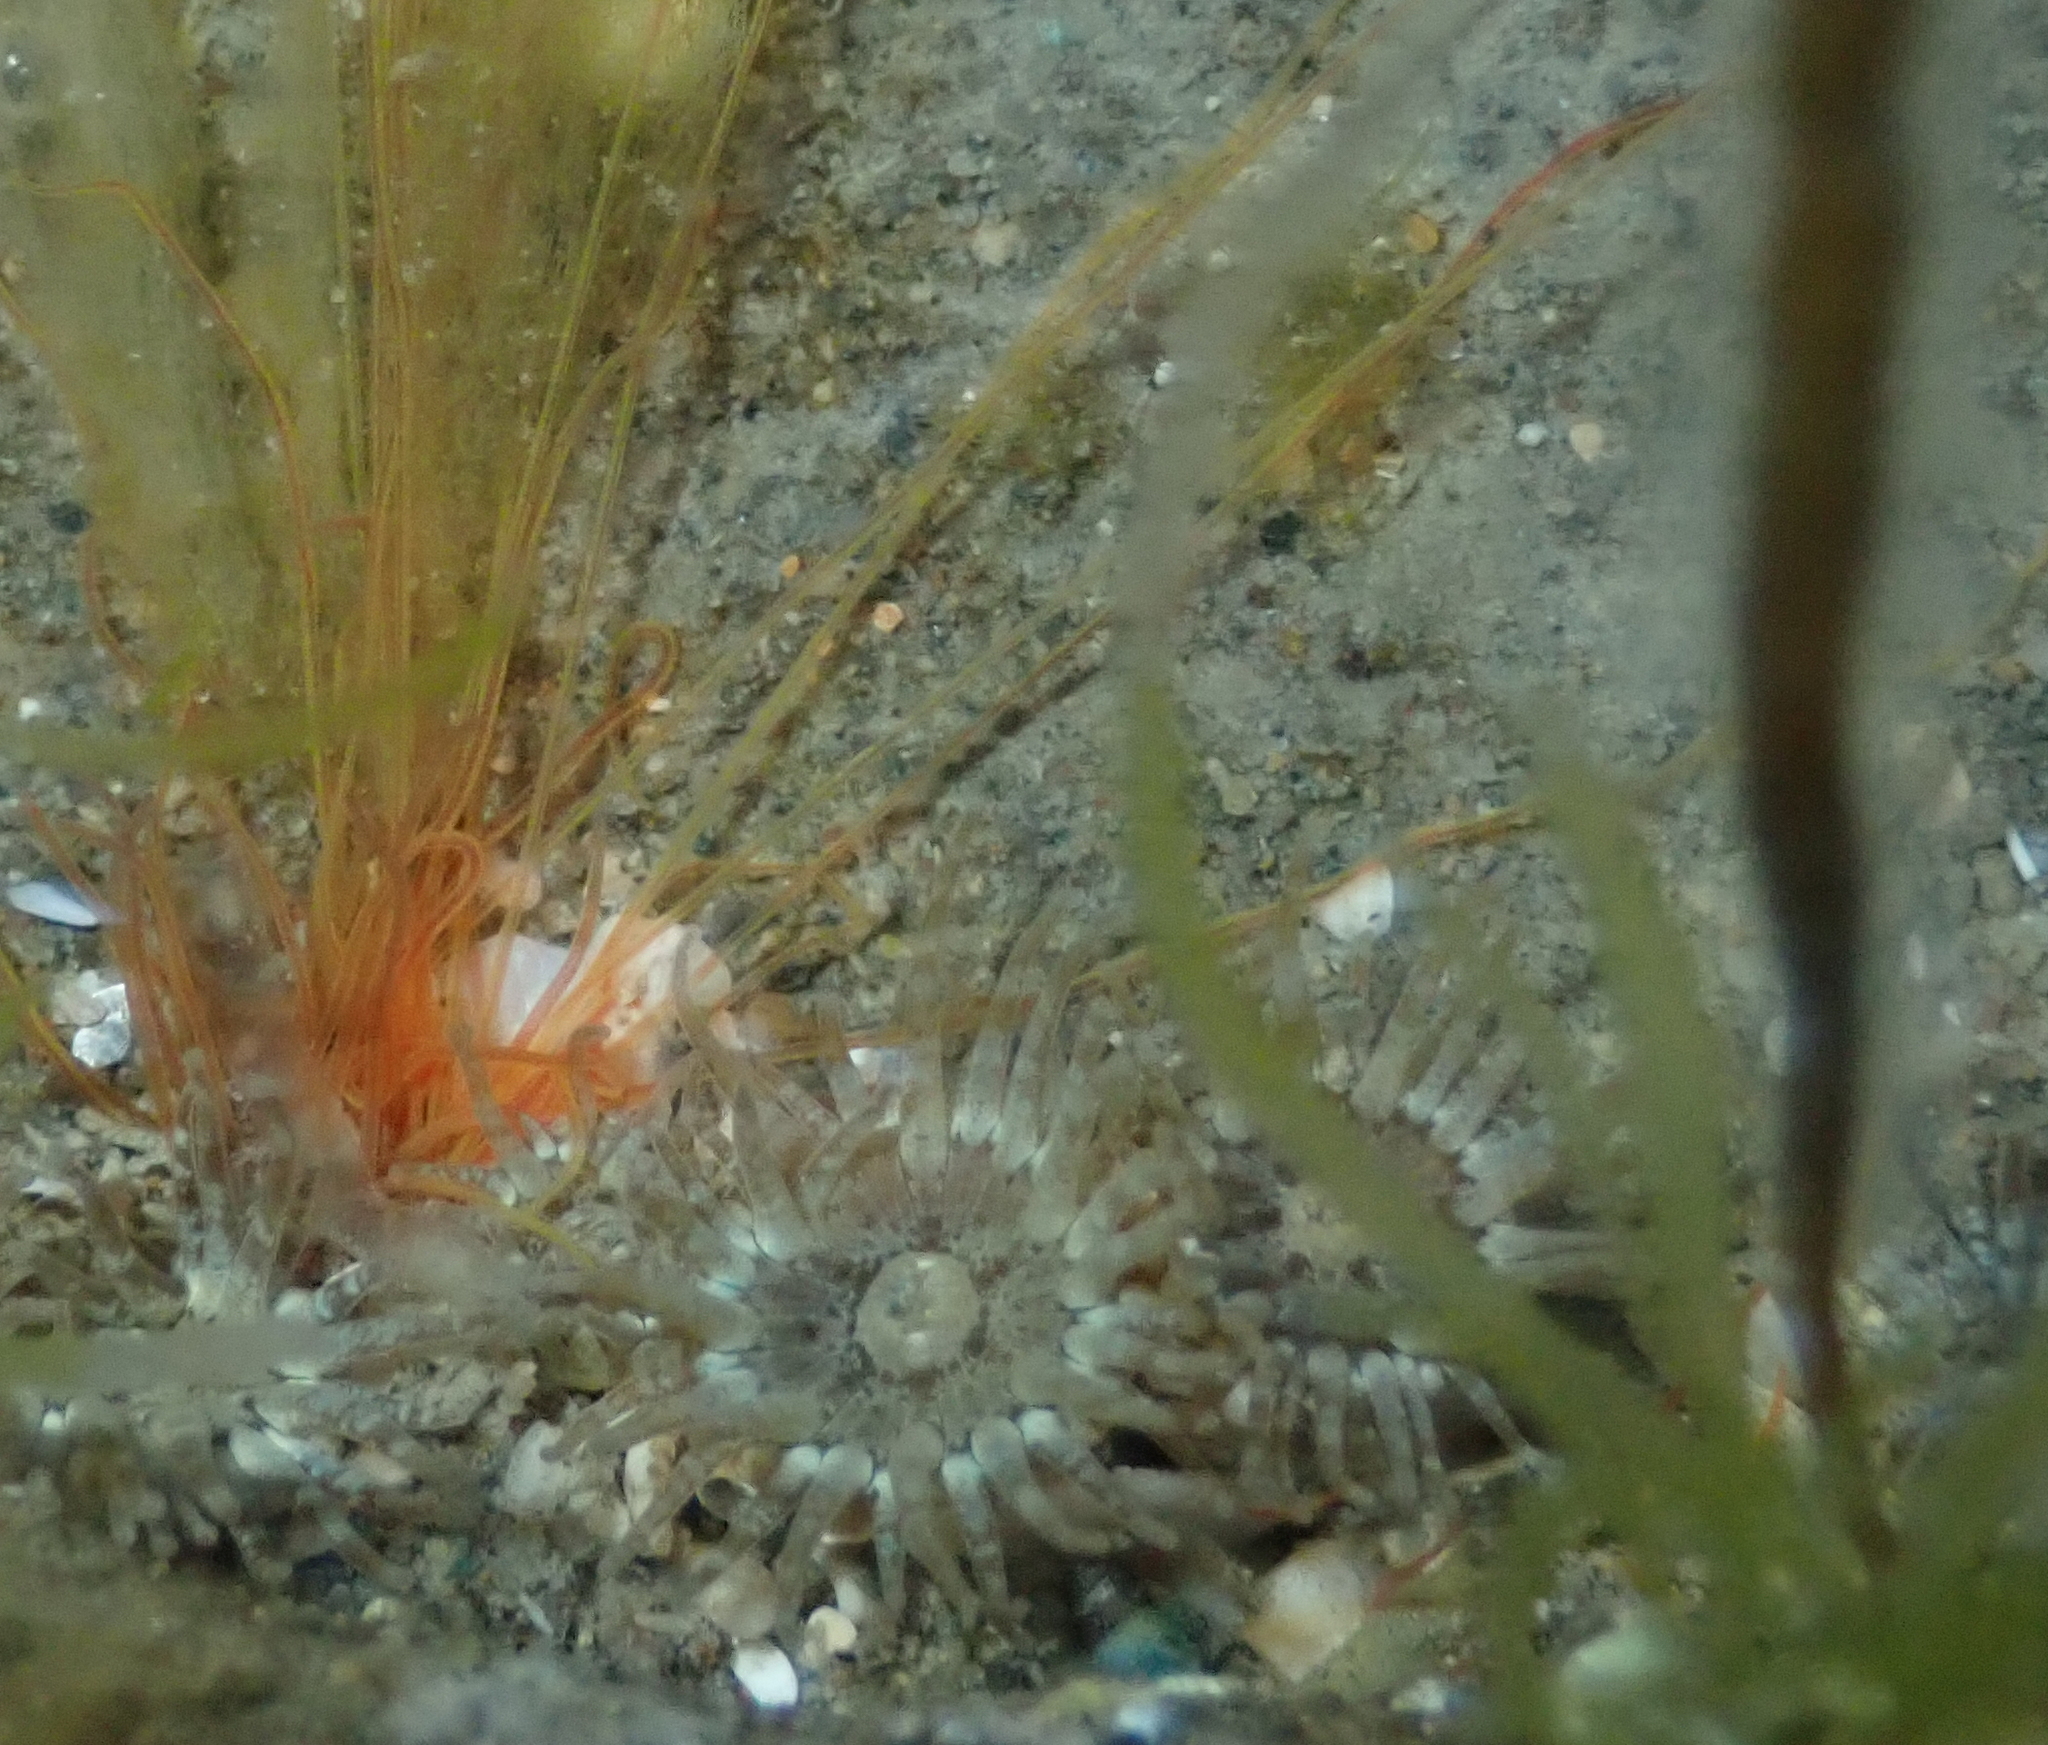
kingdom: Animalia
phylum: Cnidaria
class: Anthozoa
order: Actiniaria
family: Actiniidae
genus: Anthopleura
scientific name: Anthopleura hermaphroditica
